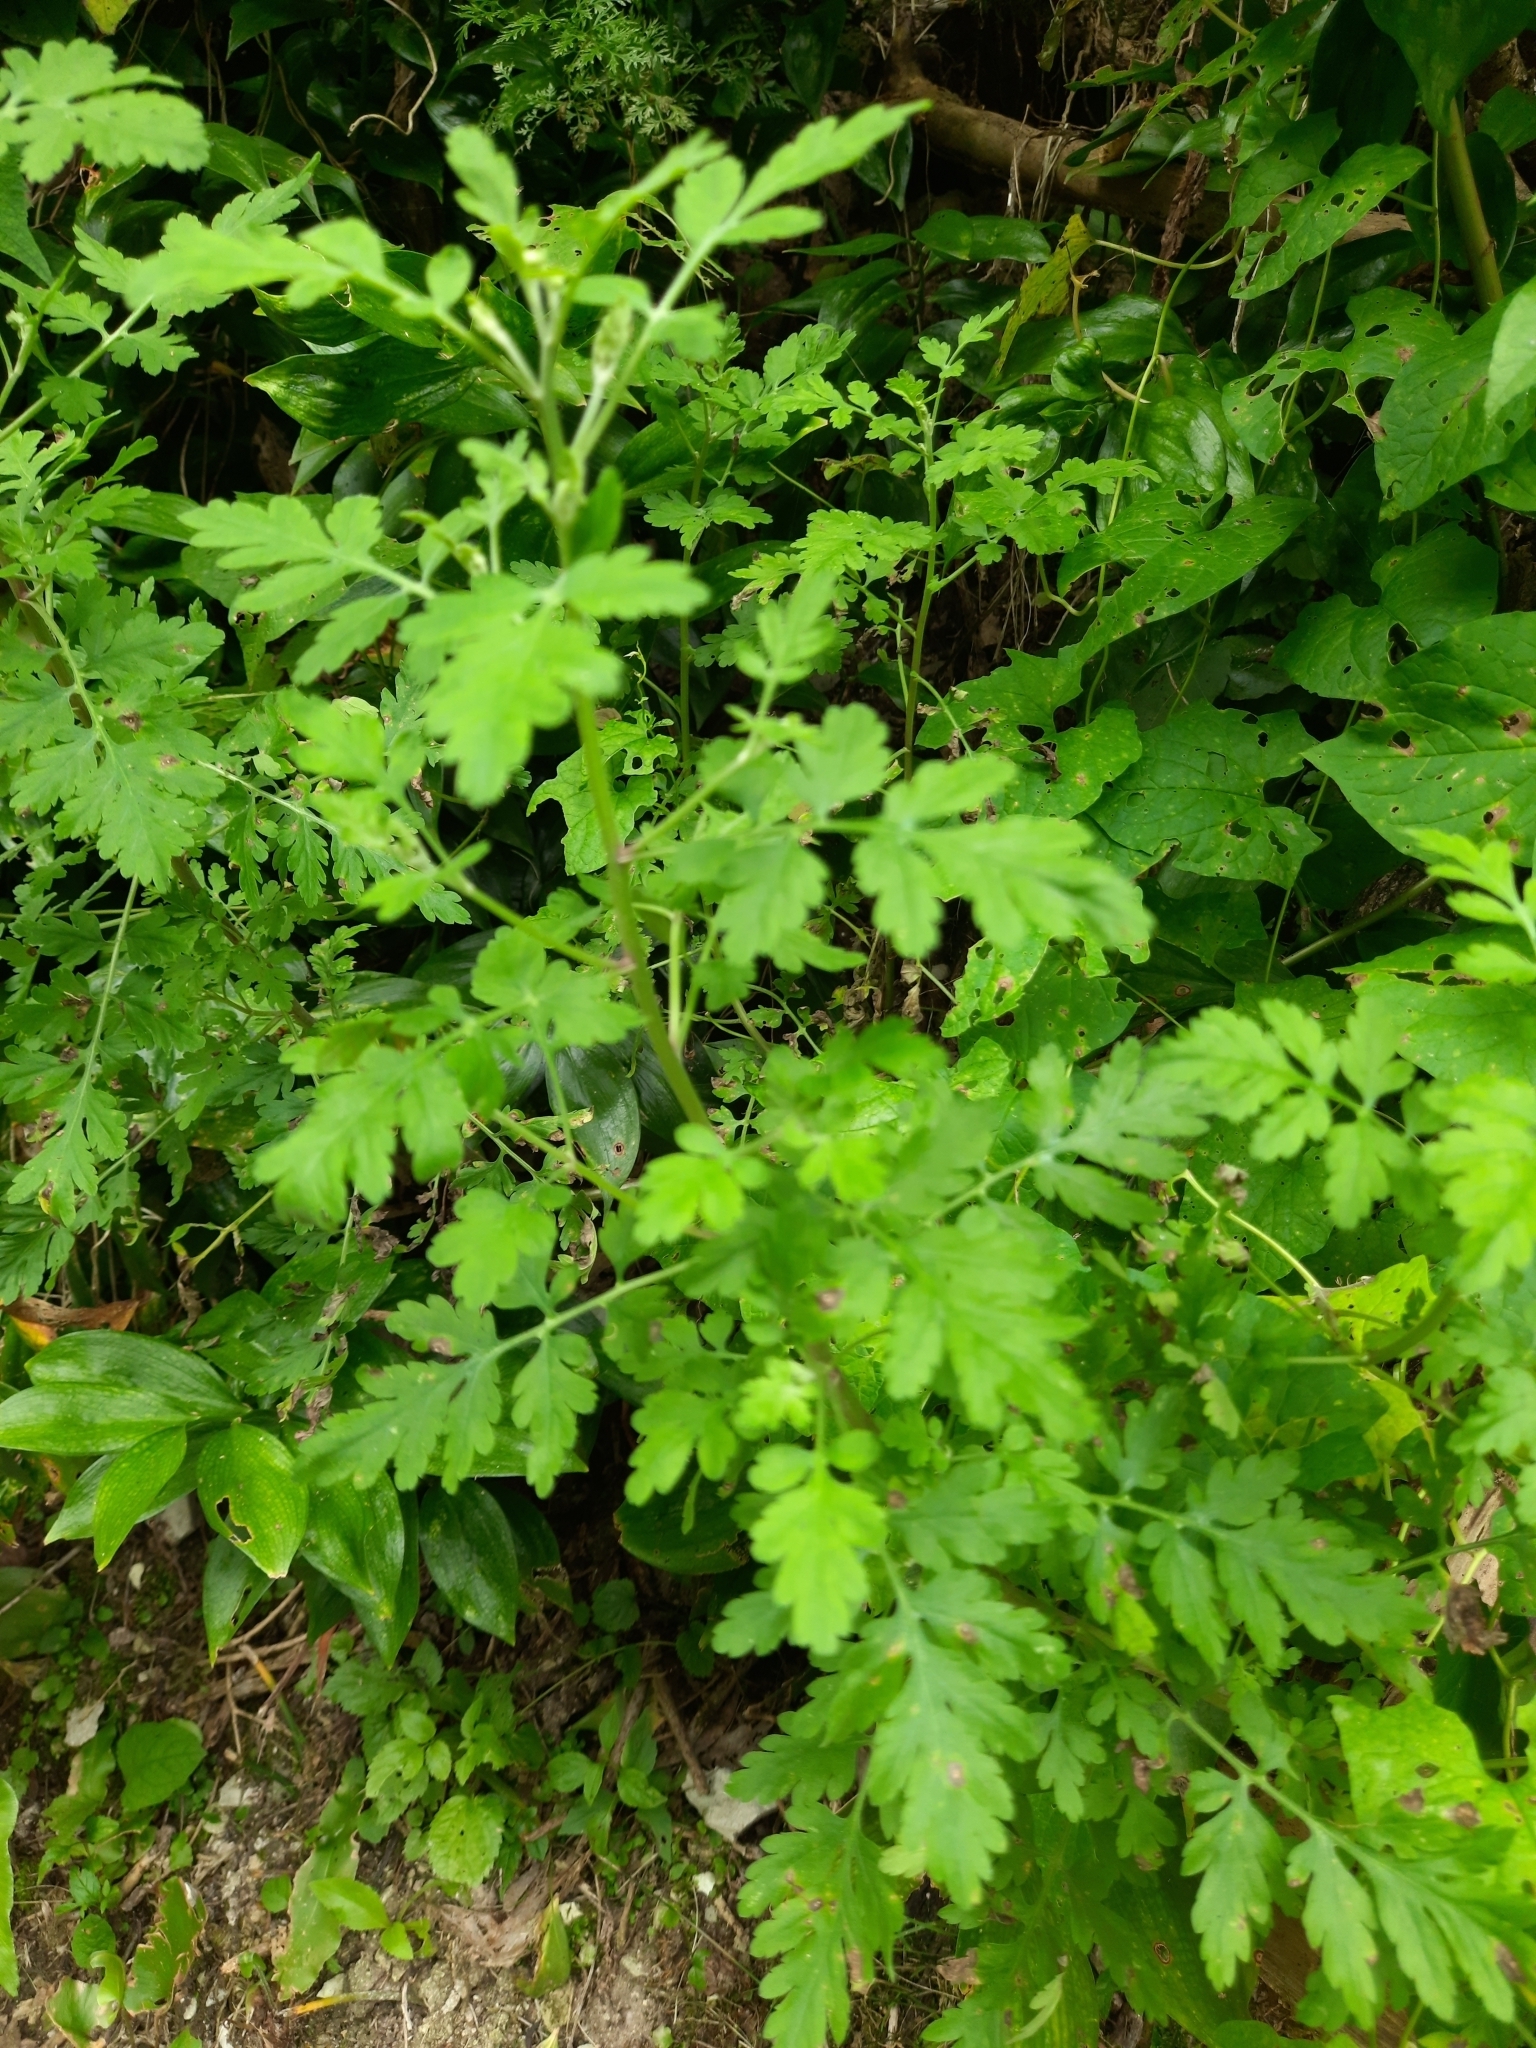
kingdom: Plantae
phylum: Tracheophyta
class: Magnoliopsida
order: Asterales
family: Asteraceae
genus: Tanacetum
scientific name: Tanacetum partheniifolium
